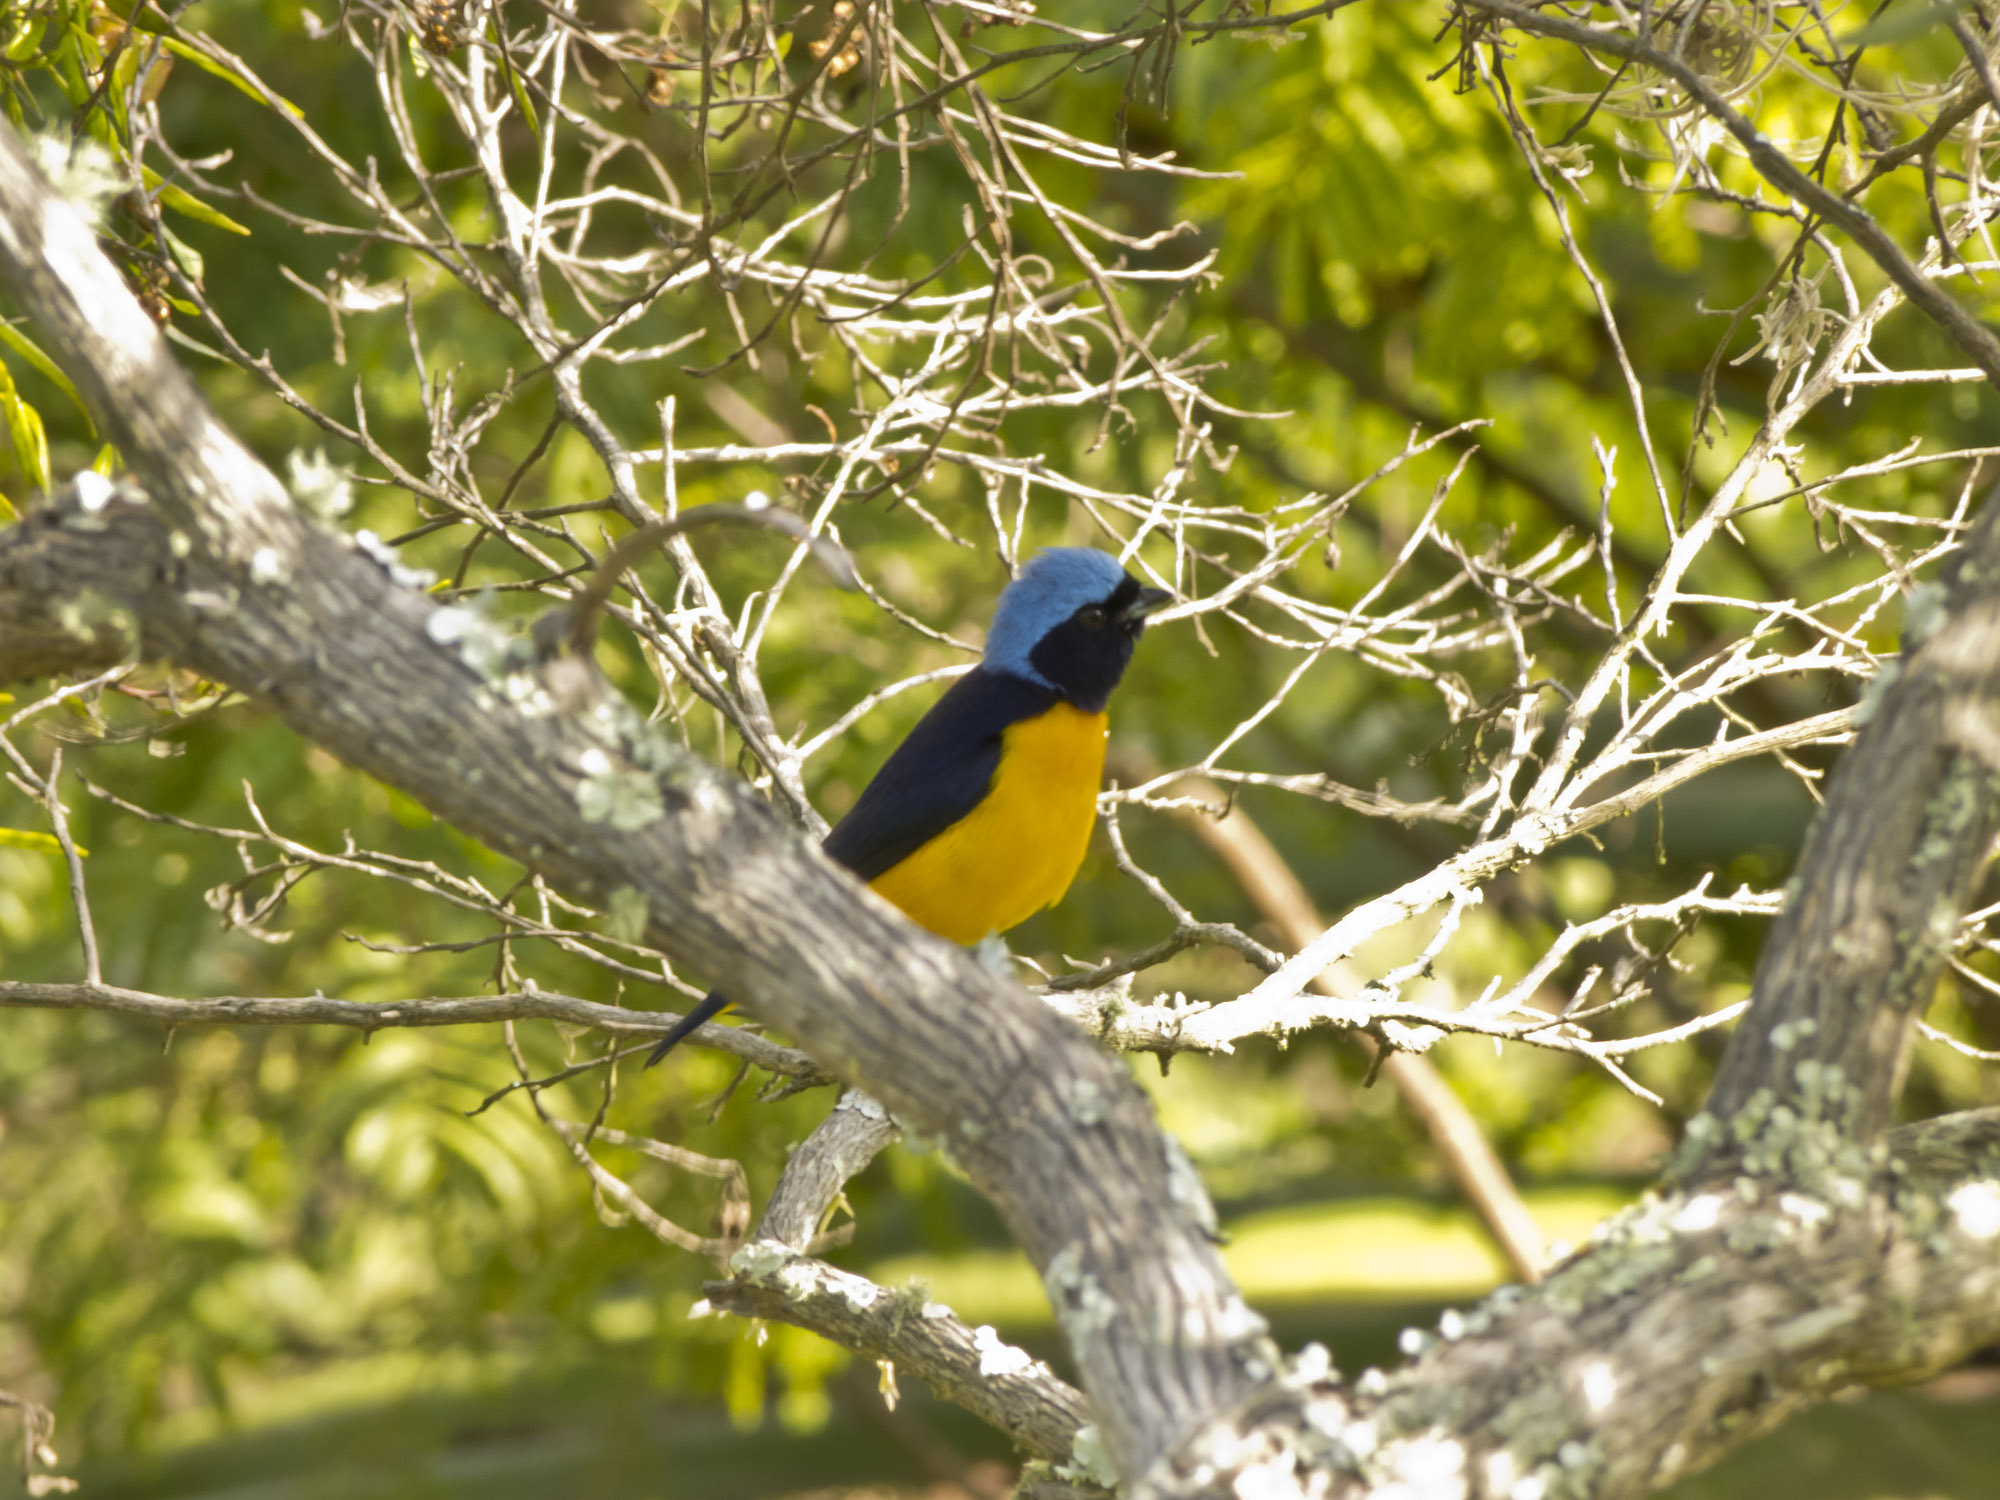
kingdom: Animalia
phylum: Chordata
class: Aves
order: Passeriformes
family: Fringillidae
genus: Euphonia
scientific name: Euphonia cyanocephala
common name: Golden-rumped euphonia
